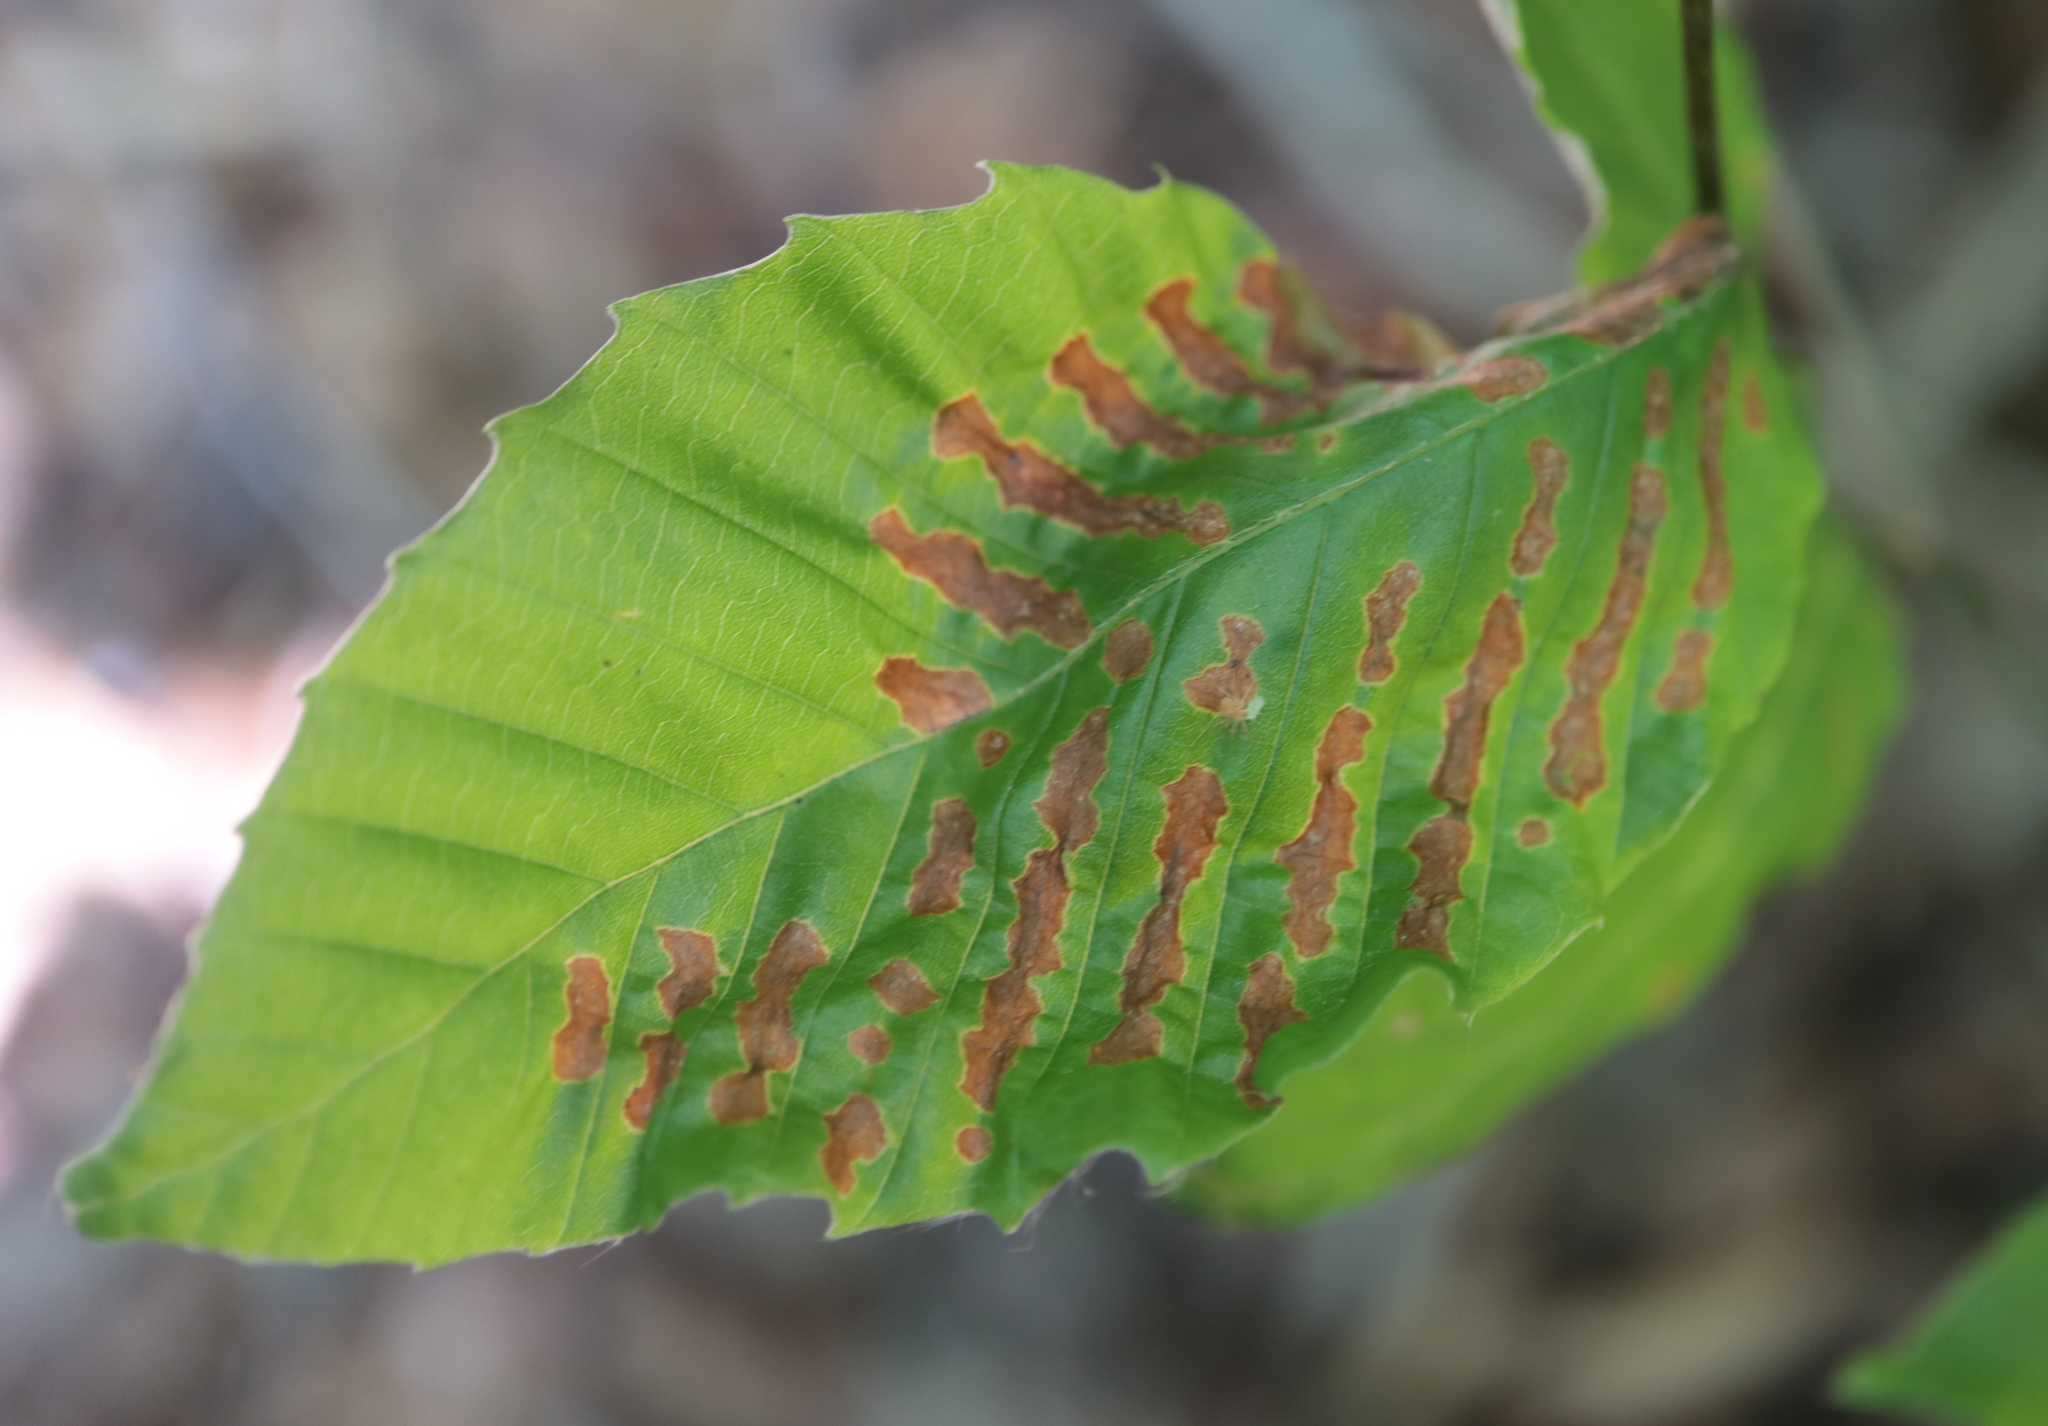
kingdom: Animalia
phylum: Arthropoda
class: Arachnida
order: Trombidiformes
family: Eriophyidae
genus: Acalitus
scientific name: Acalitus
